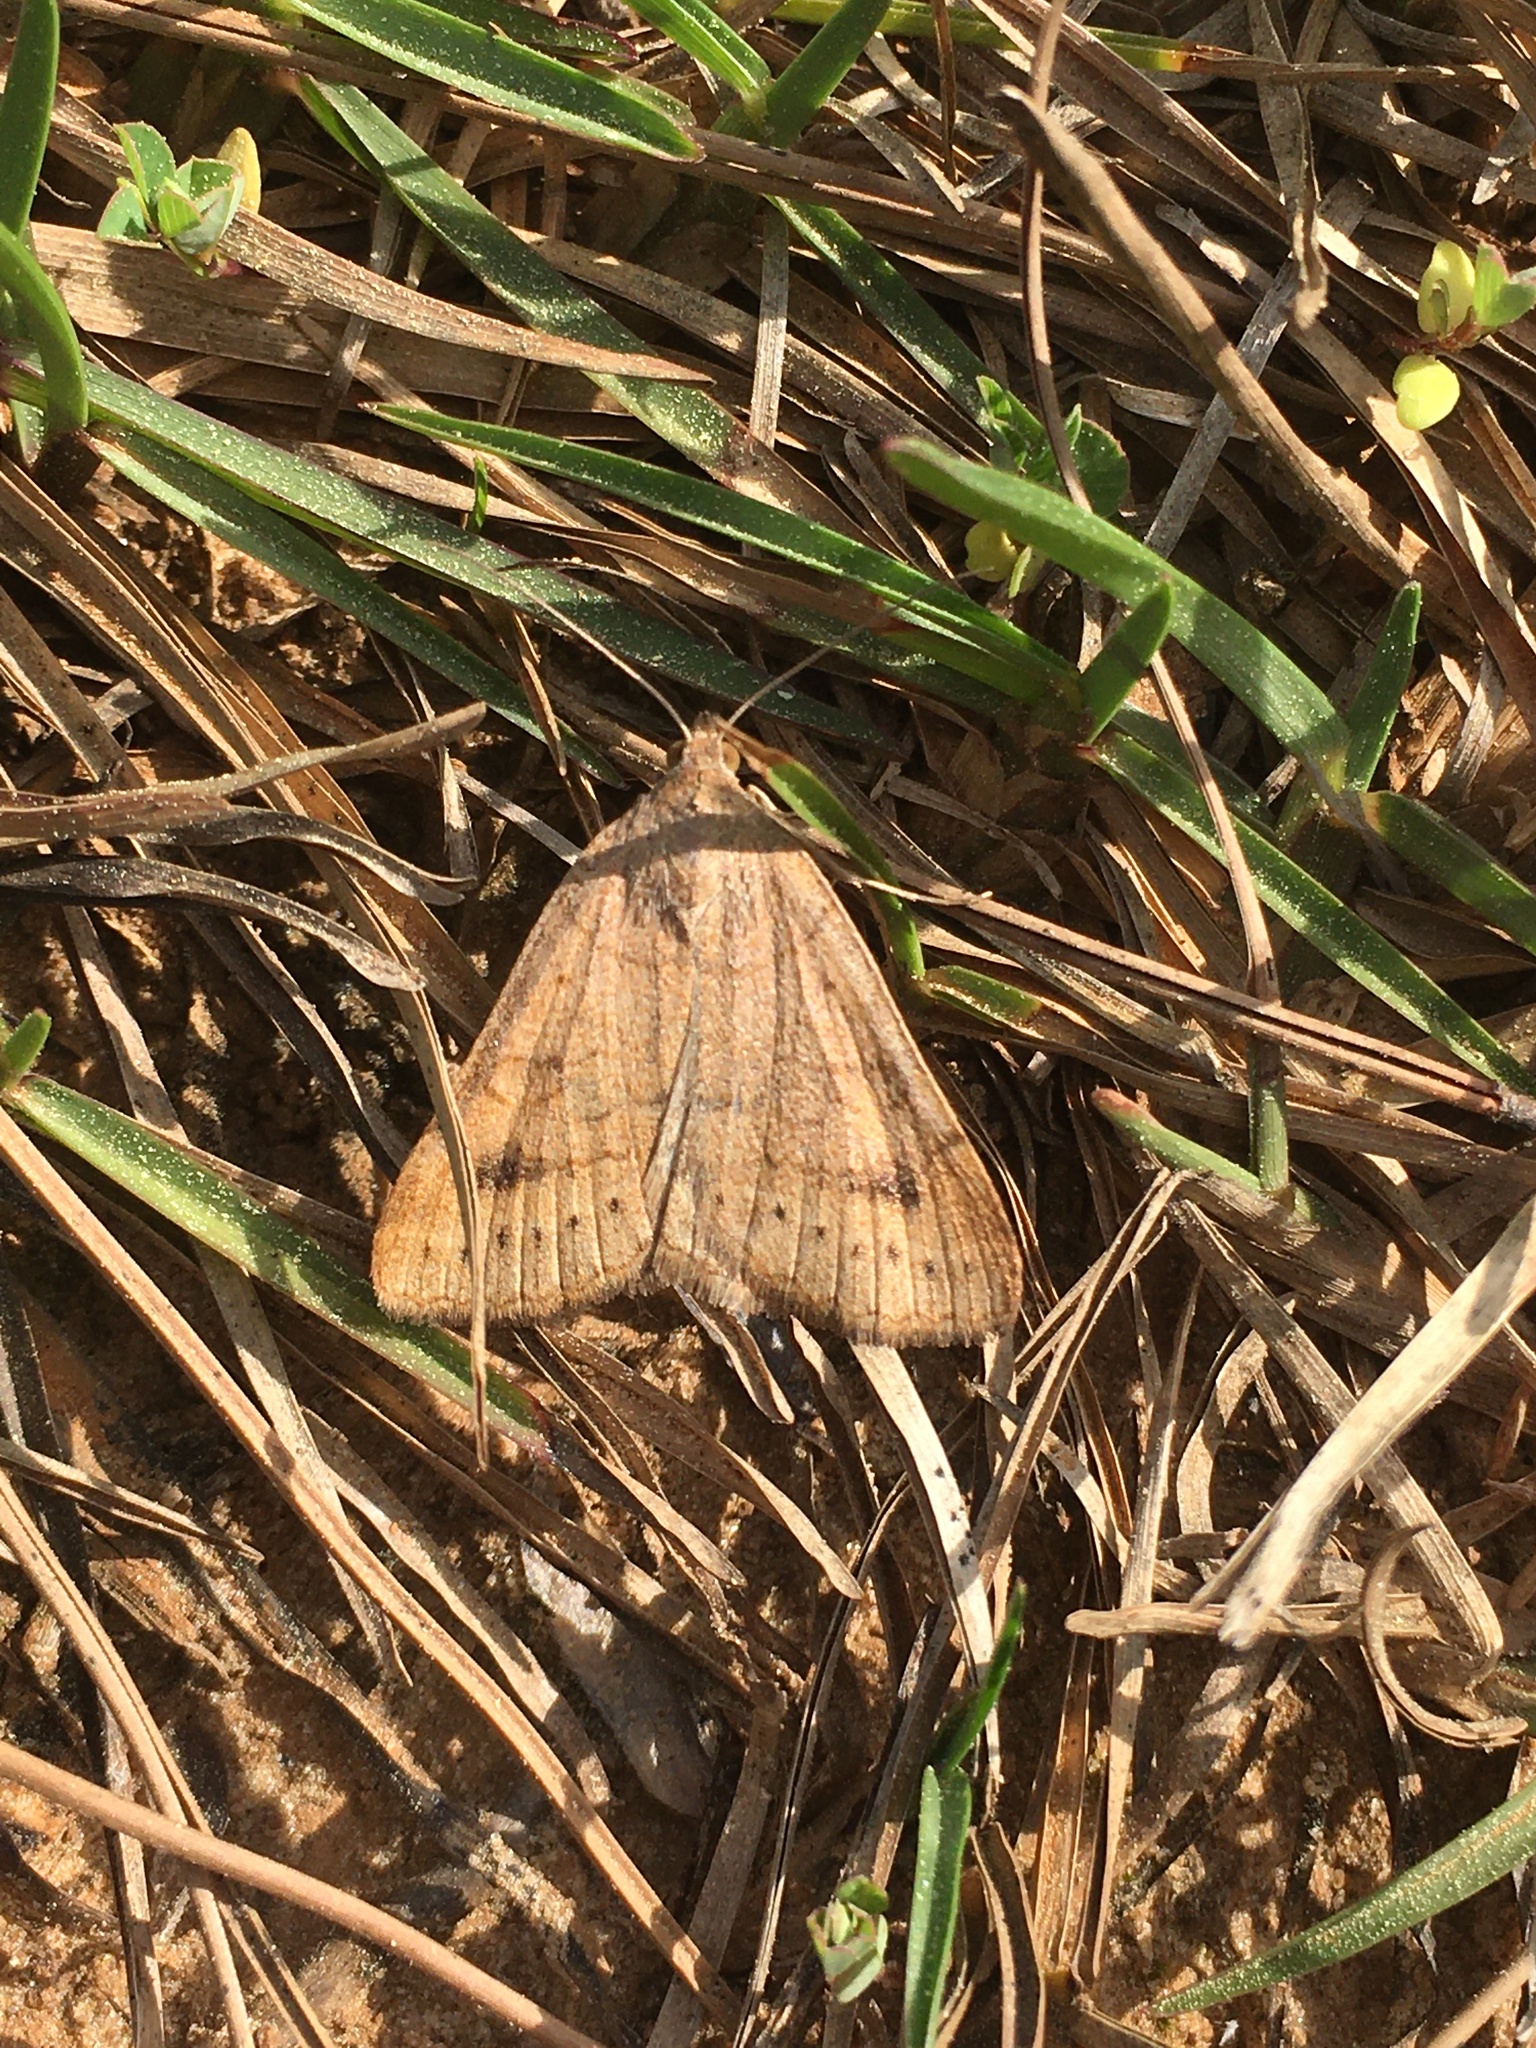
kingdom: Animalia
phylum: Arthropoda
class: Insecta
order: Lepidoptera
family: Erebidae
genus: Caenurgia
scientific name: Caenurgia chloropha
